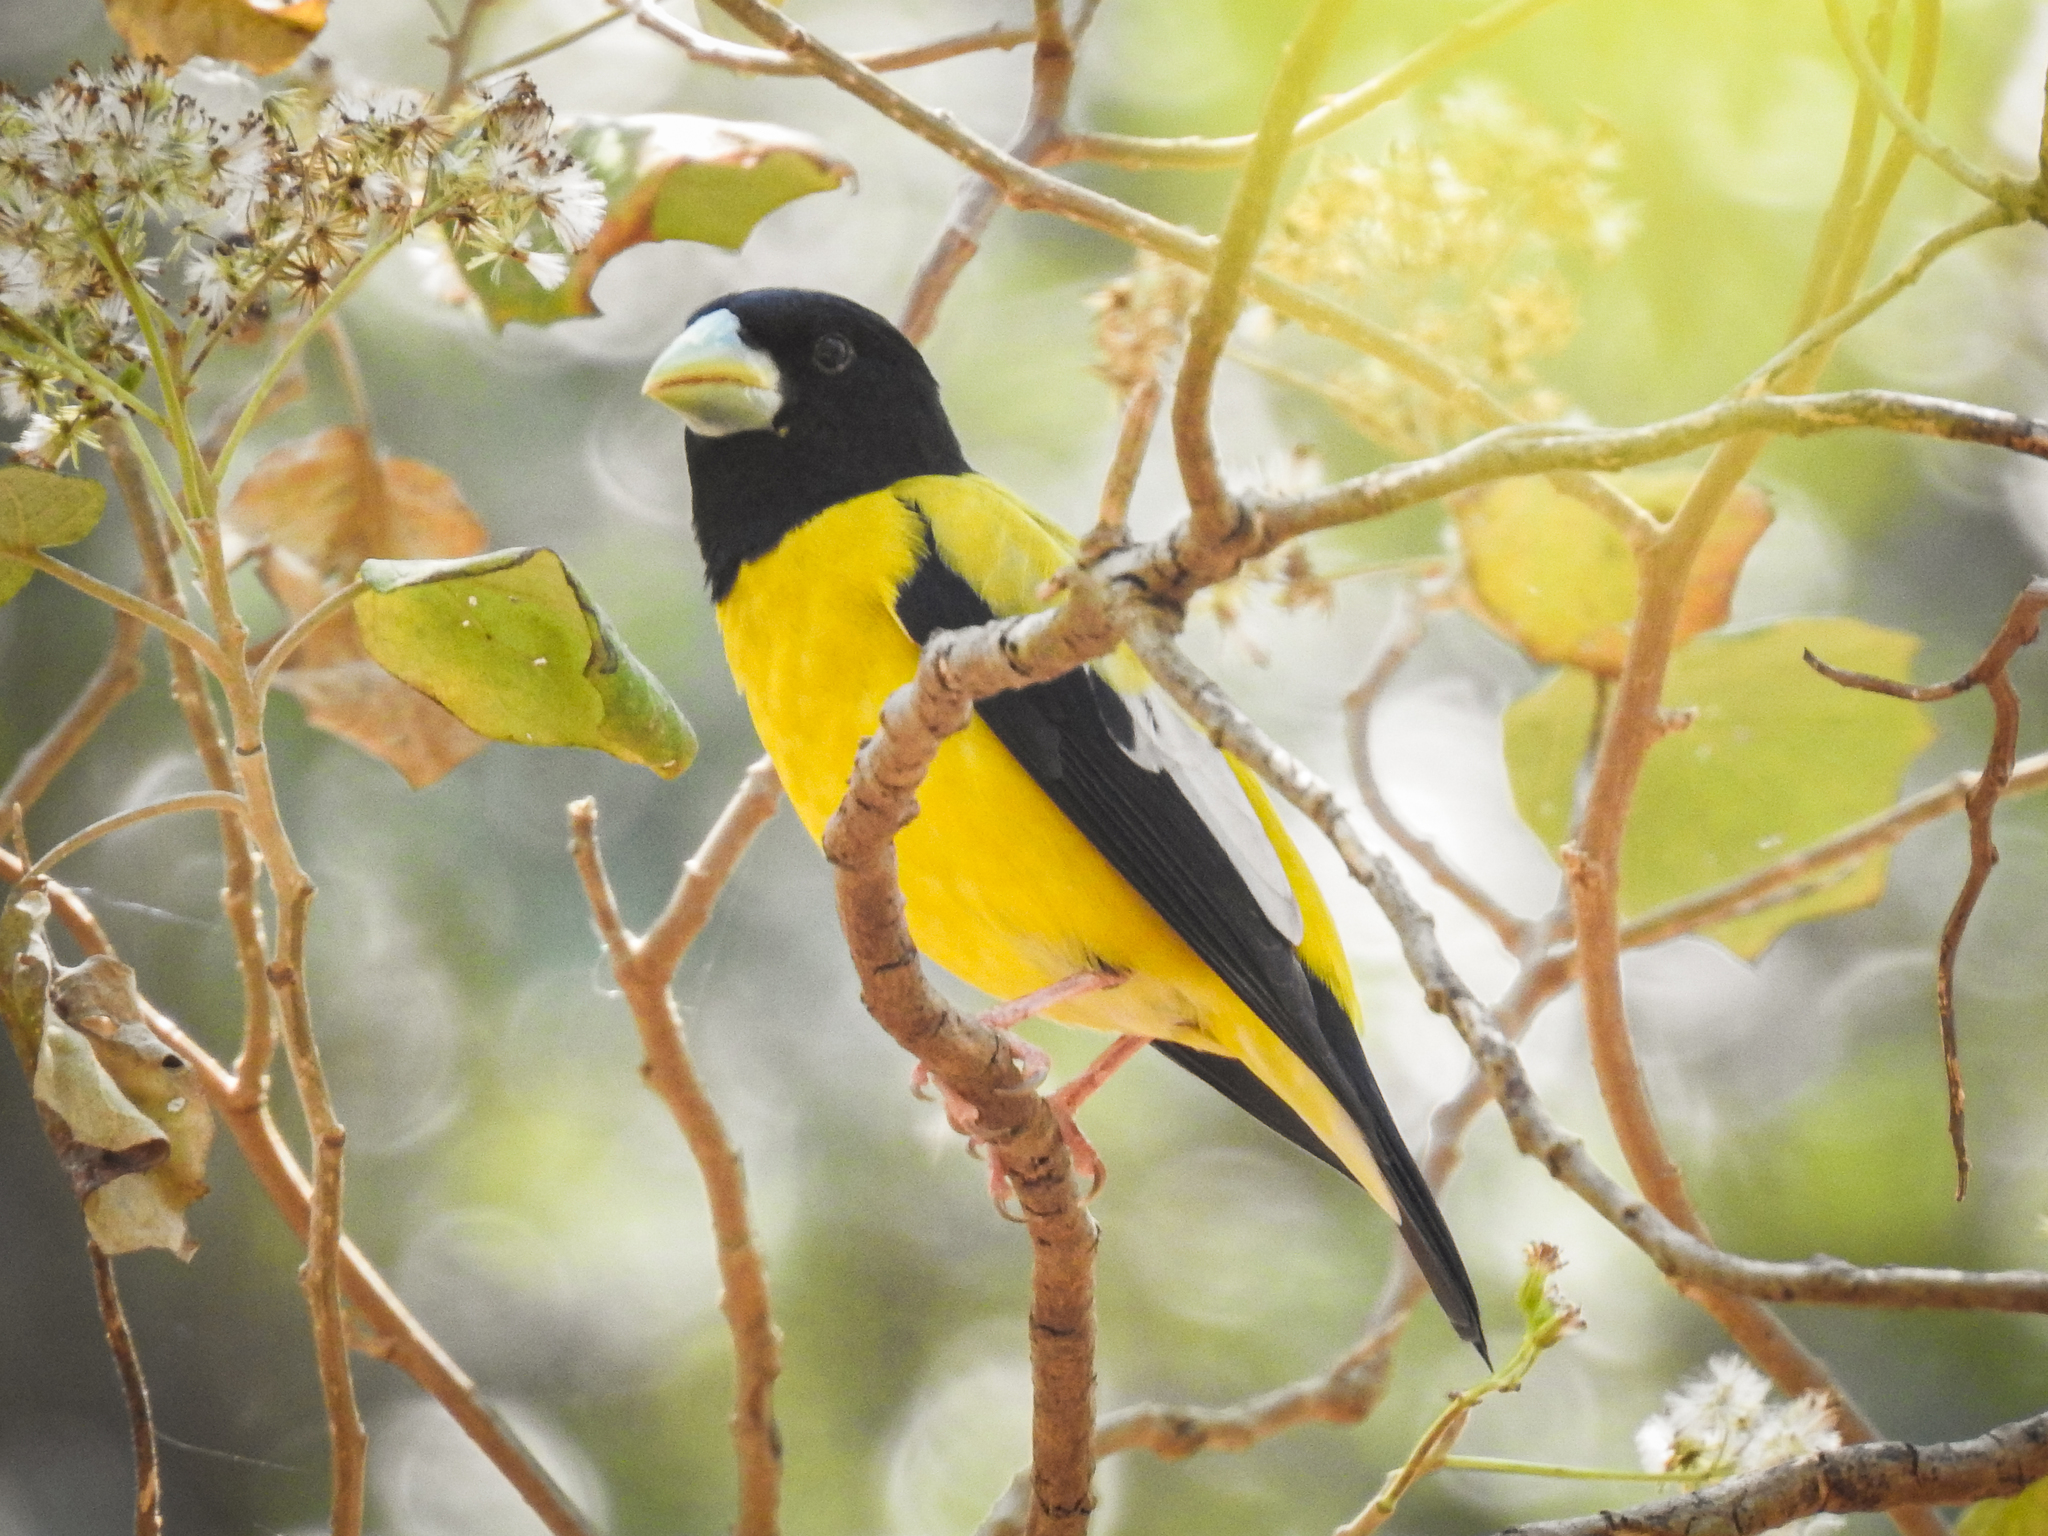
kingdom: Animalia
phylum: Chordata
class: Aves
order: Passeriformes
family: Fringillidae
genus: Hesperiphona
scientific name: Hesperiphona abeillei
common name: Hooded grosbeak
